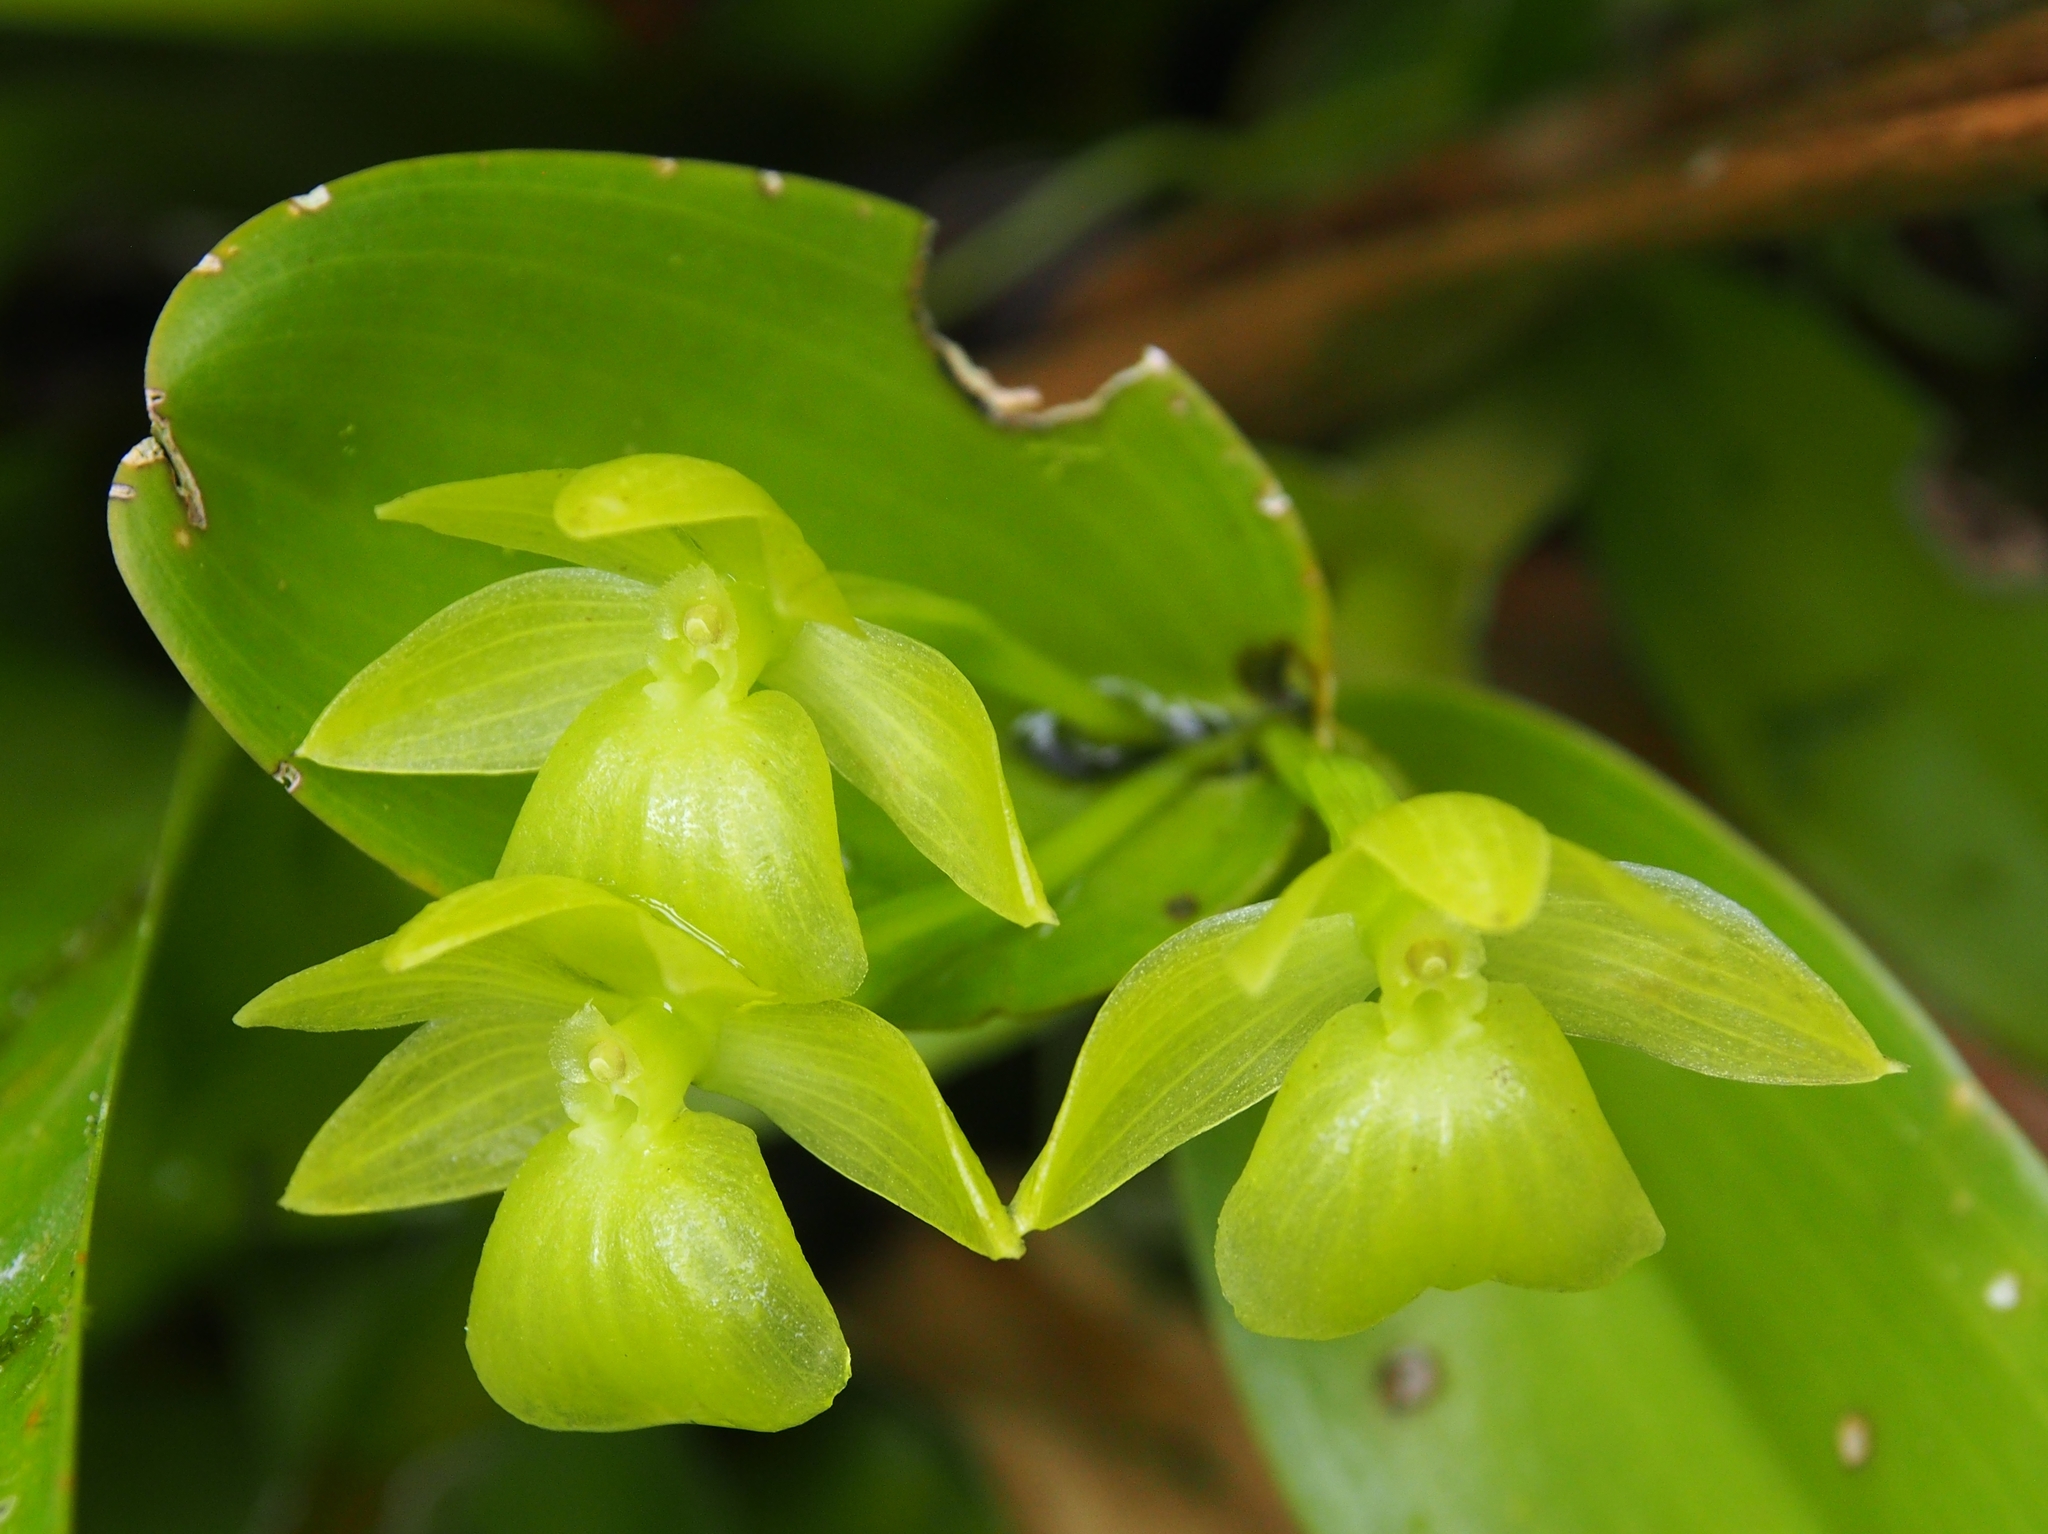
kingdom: Plantae
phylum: Tracheophyta
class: Liliopsida
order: Asparagales
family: Orchidaceae
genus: Epidendrum
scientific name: Epidendrum hunterianum
